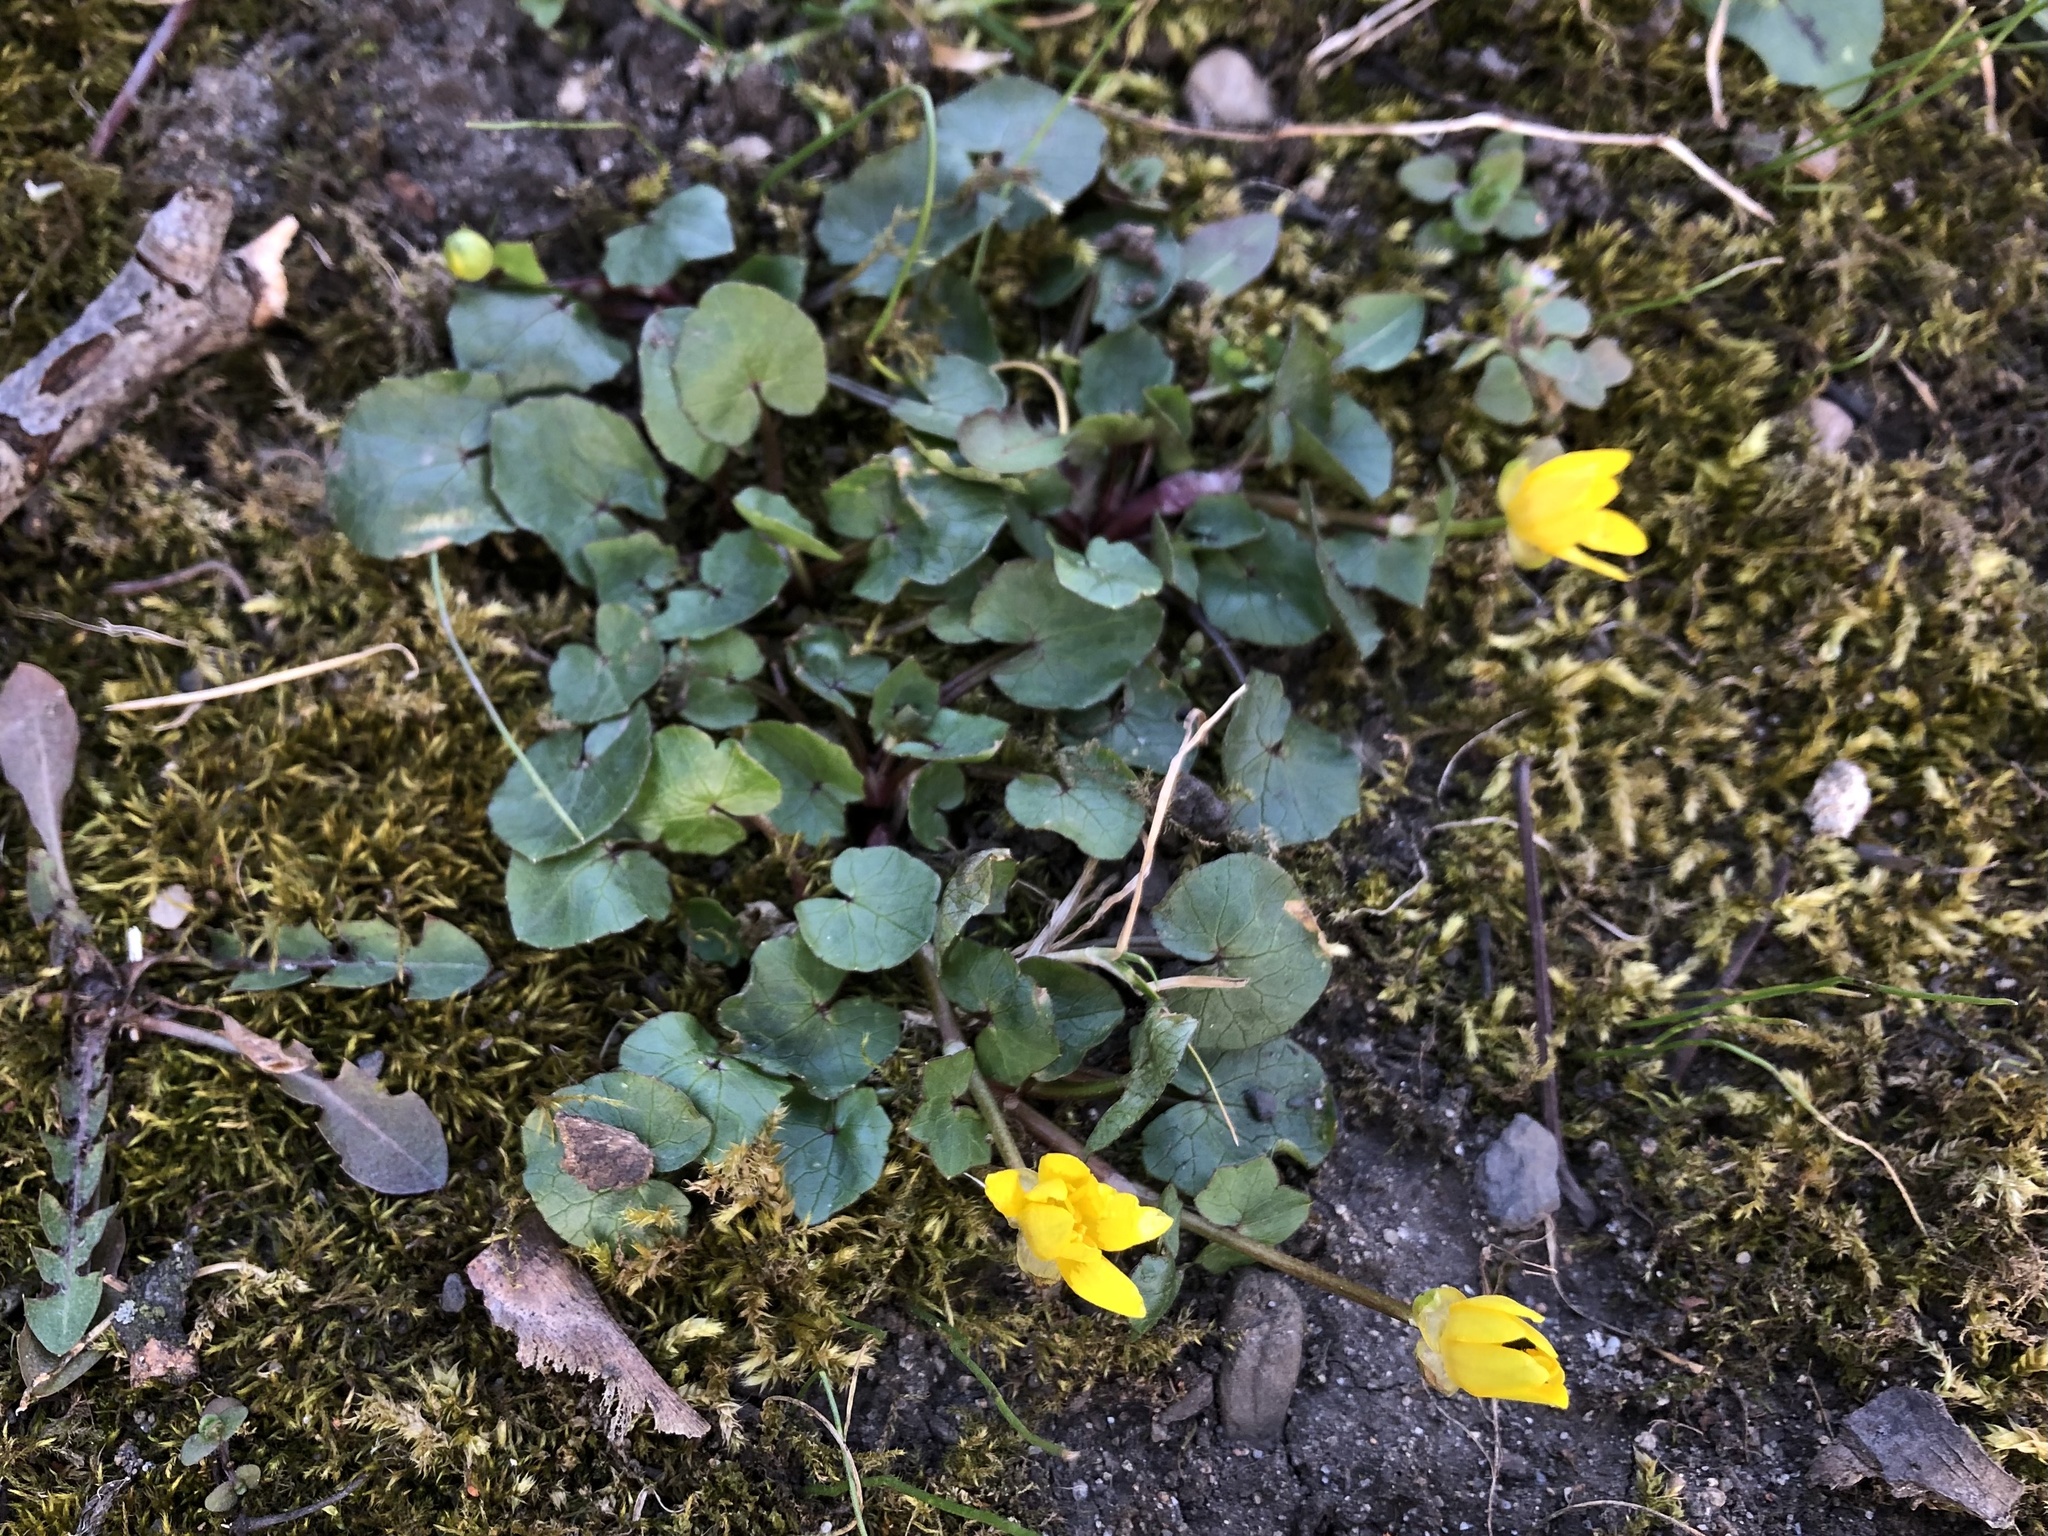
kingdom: Plantae
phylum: Tracheophyta
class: Magnoliopsida
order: Ranunculales
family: Ranunculaceae
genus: Ficaria
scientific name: Ficaria verna
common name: Lesser celandine
